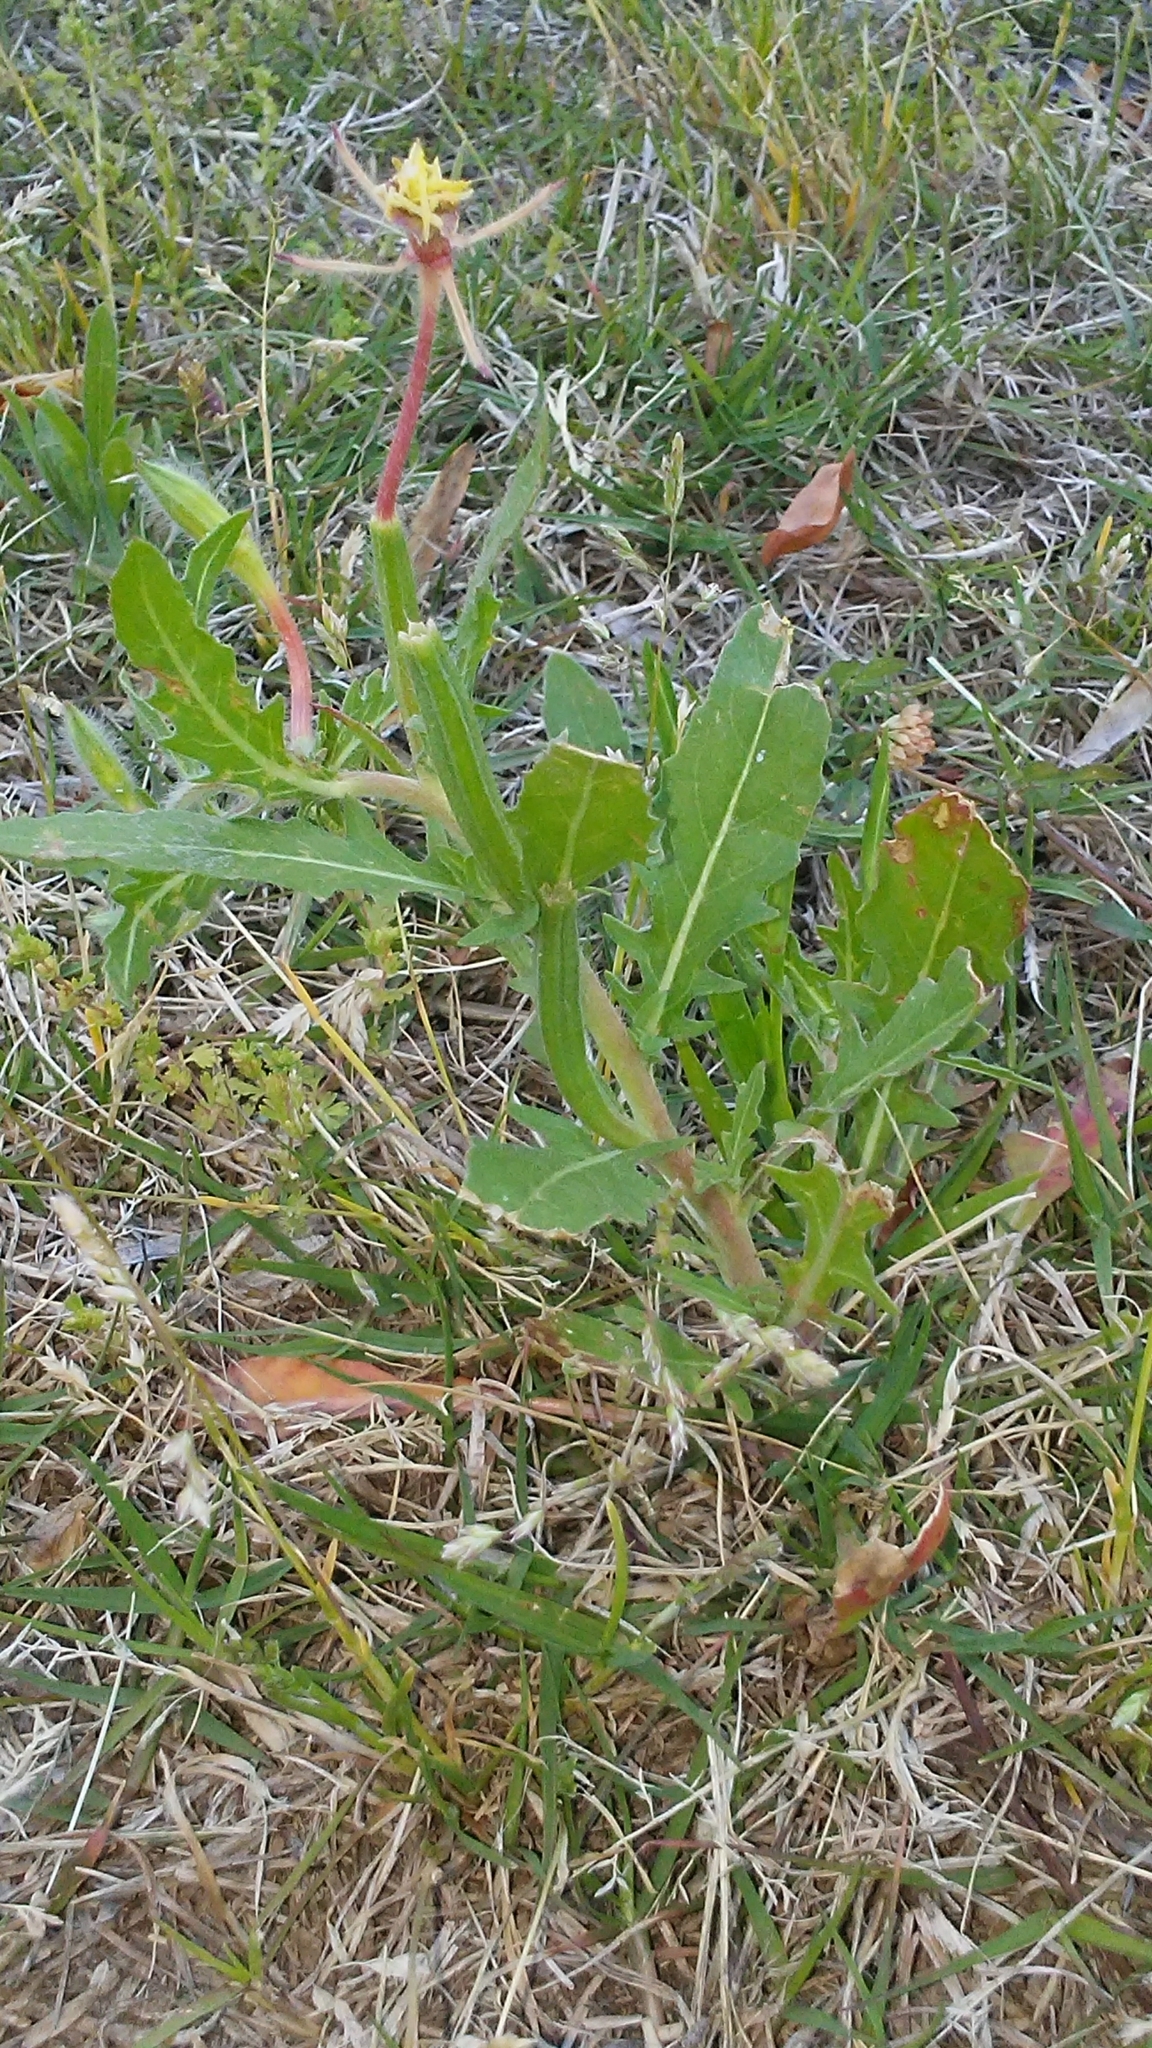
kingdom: Plantae
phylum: Tracheophyta
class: Magnoliopsida
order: Myrtales
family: Onagraceae
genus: Oenothera
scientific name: Oenothera laciniata
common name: Cut-leaved evening-primrose
